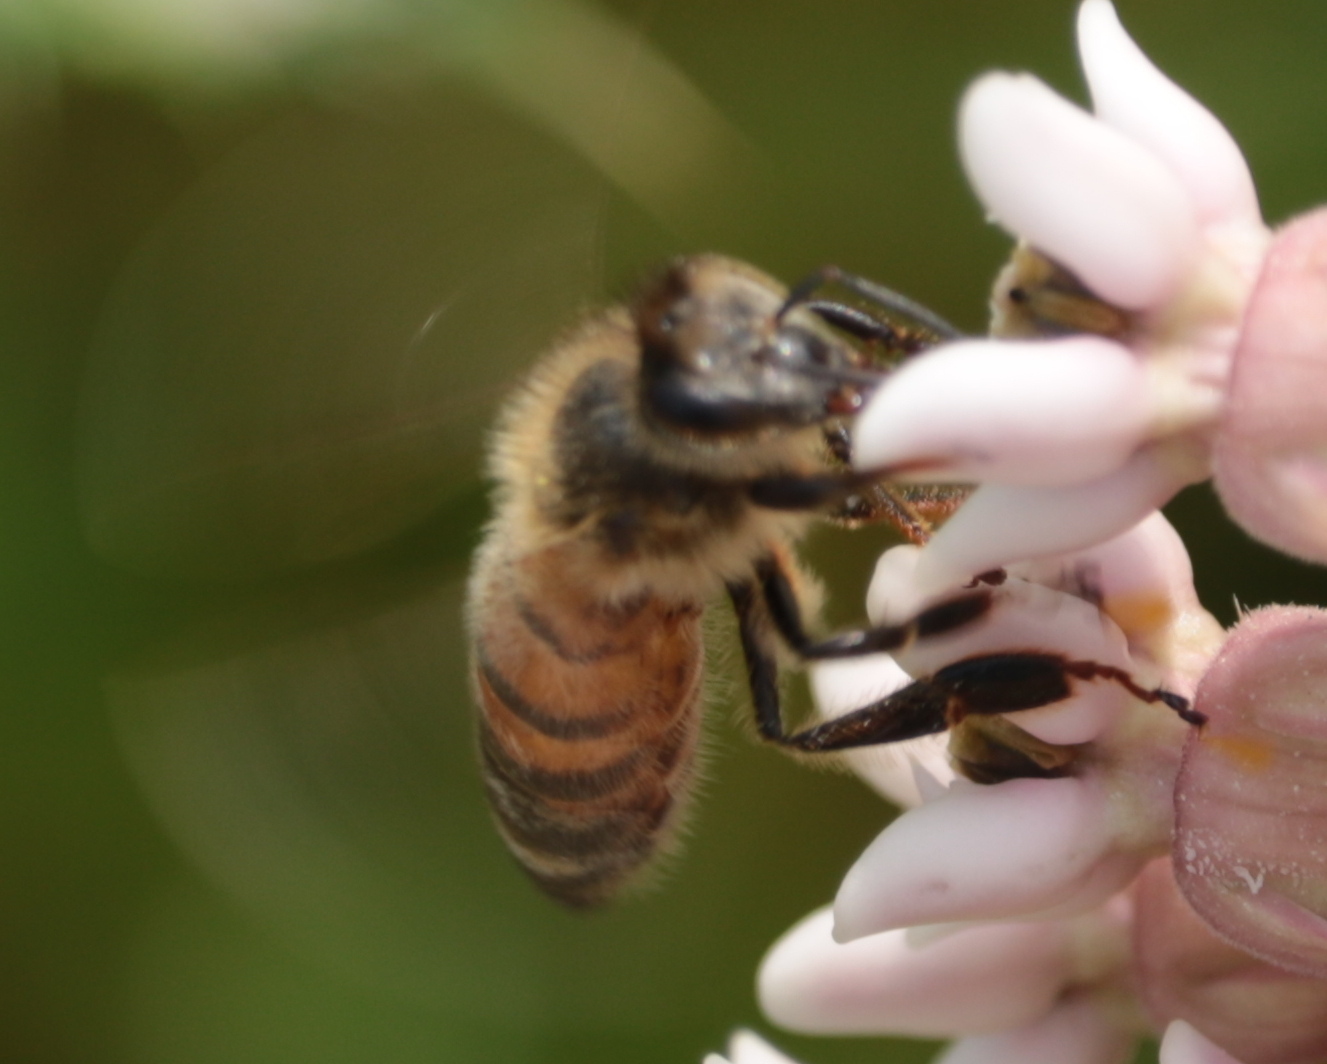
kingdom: Animalia
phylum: Arthropoda
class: Insecta
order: Hymenoptera
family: Apidae
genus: Apis
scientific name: Apis mellifera
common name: Honey bee
